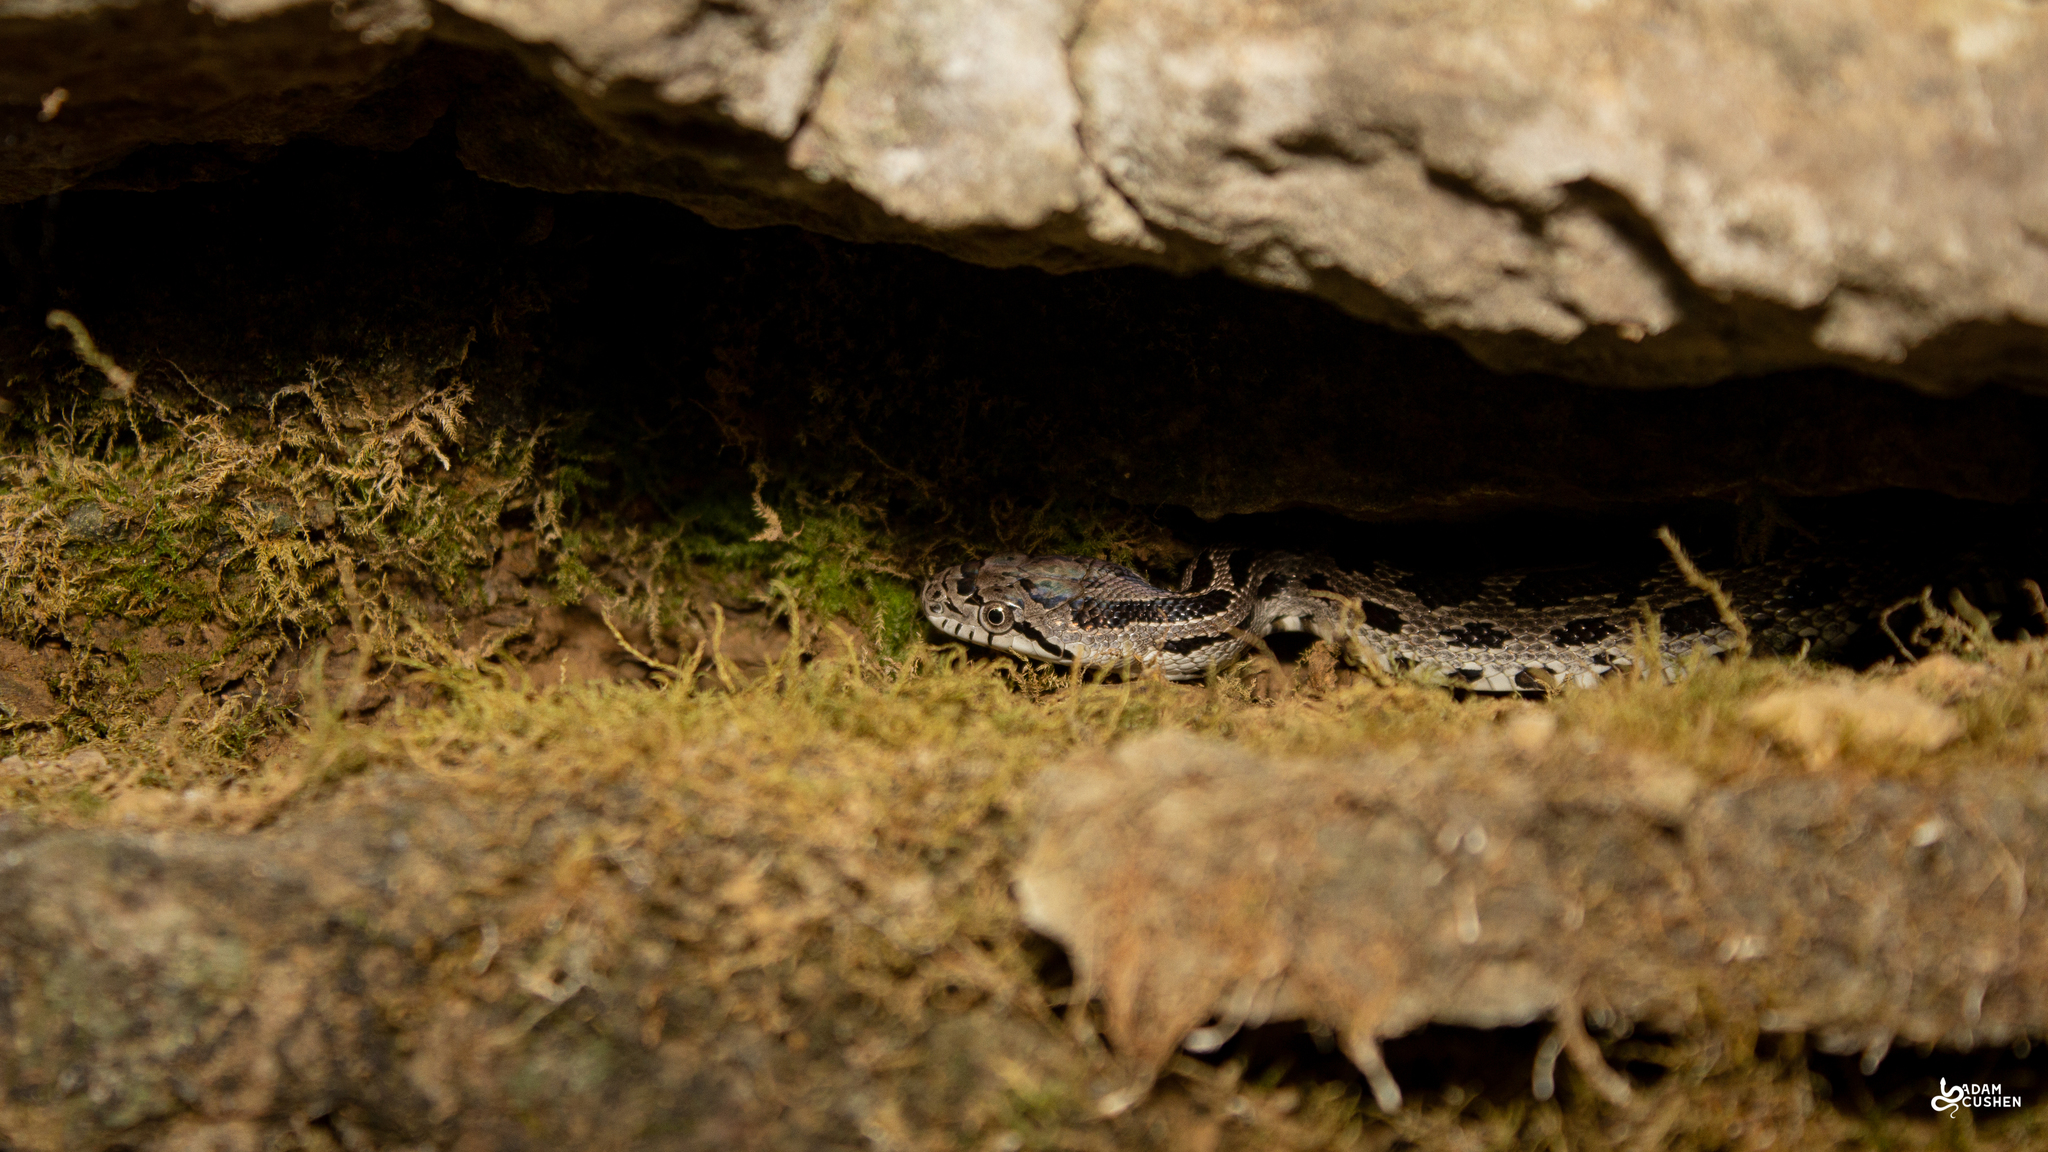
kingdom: Animalia
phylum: Chordata
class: Squamata
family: Colubridae
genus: Pantherophis
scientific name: Pantherophis spiloides
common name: Gray rat snake
